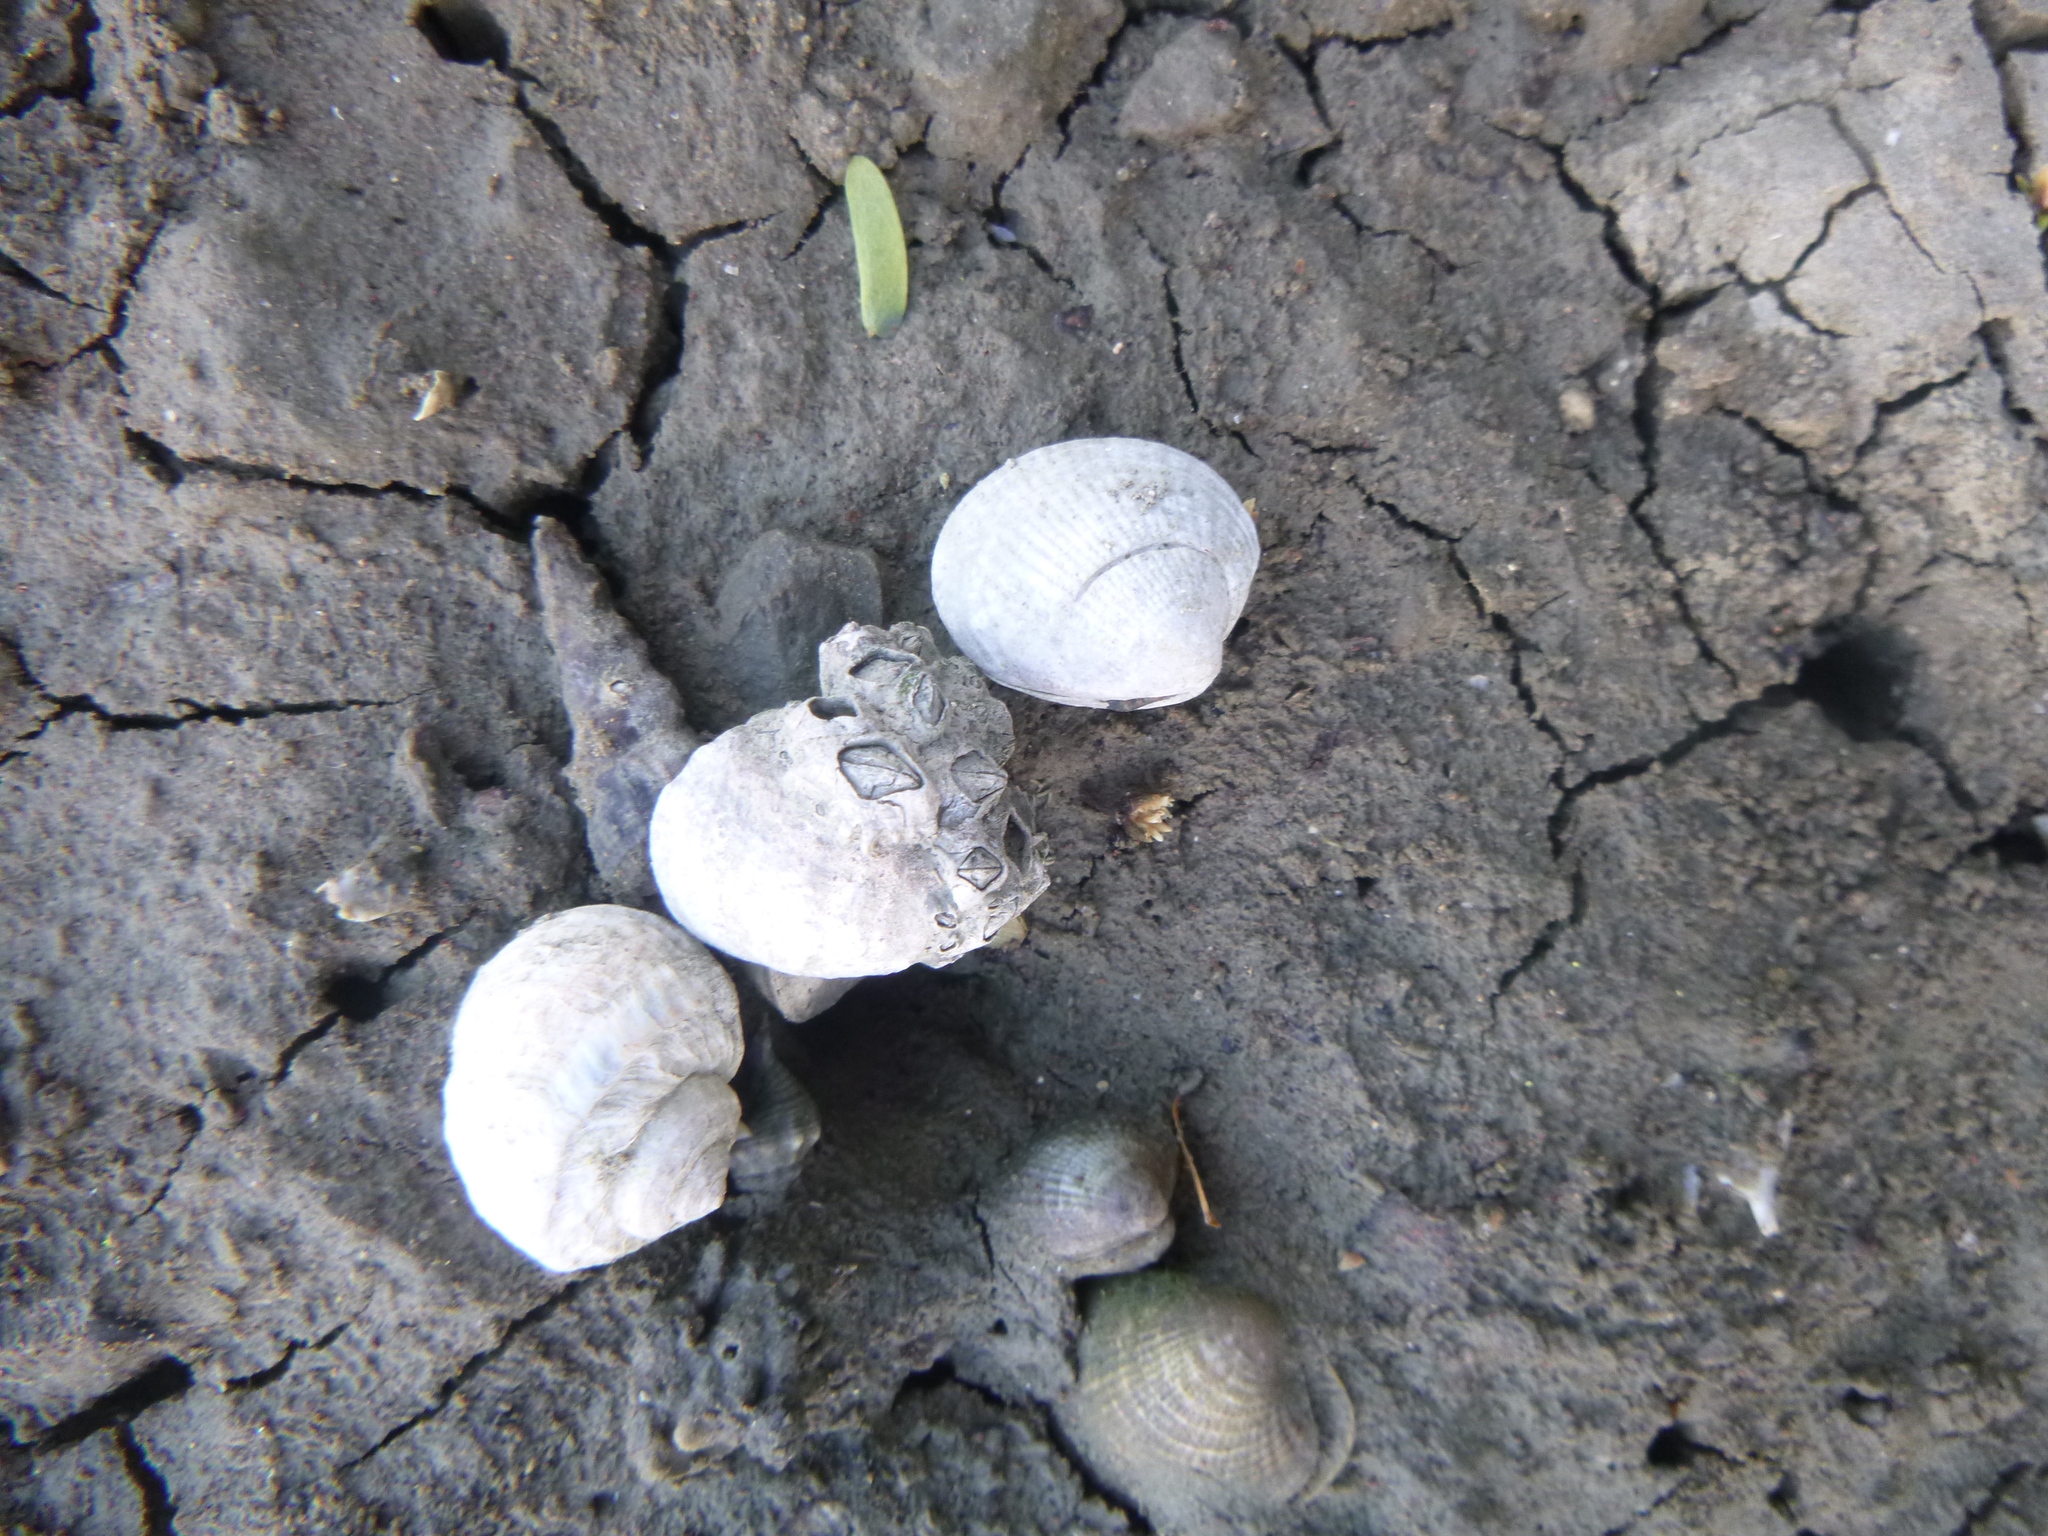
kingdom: Animalia
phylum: Arthropoda
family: Elminiidae
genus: Austrominius
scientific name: Austrominius modestus
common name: Australasian barnacle
